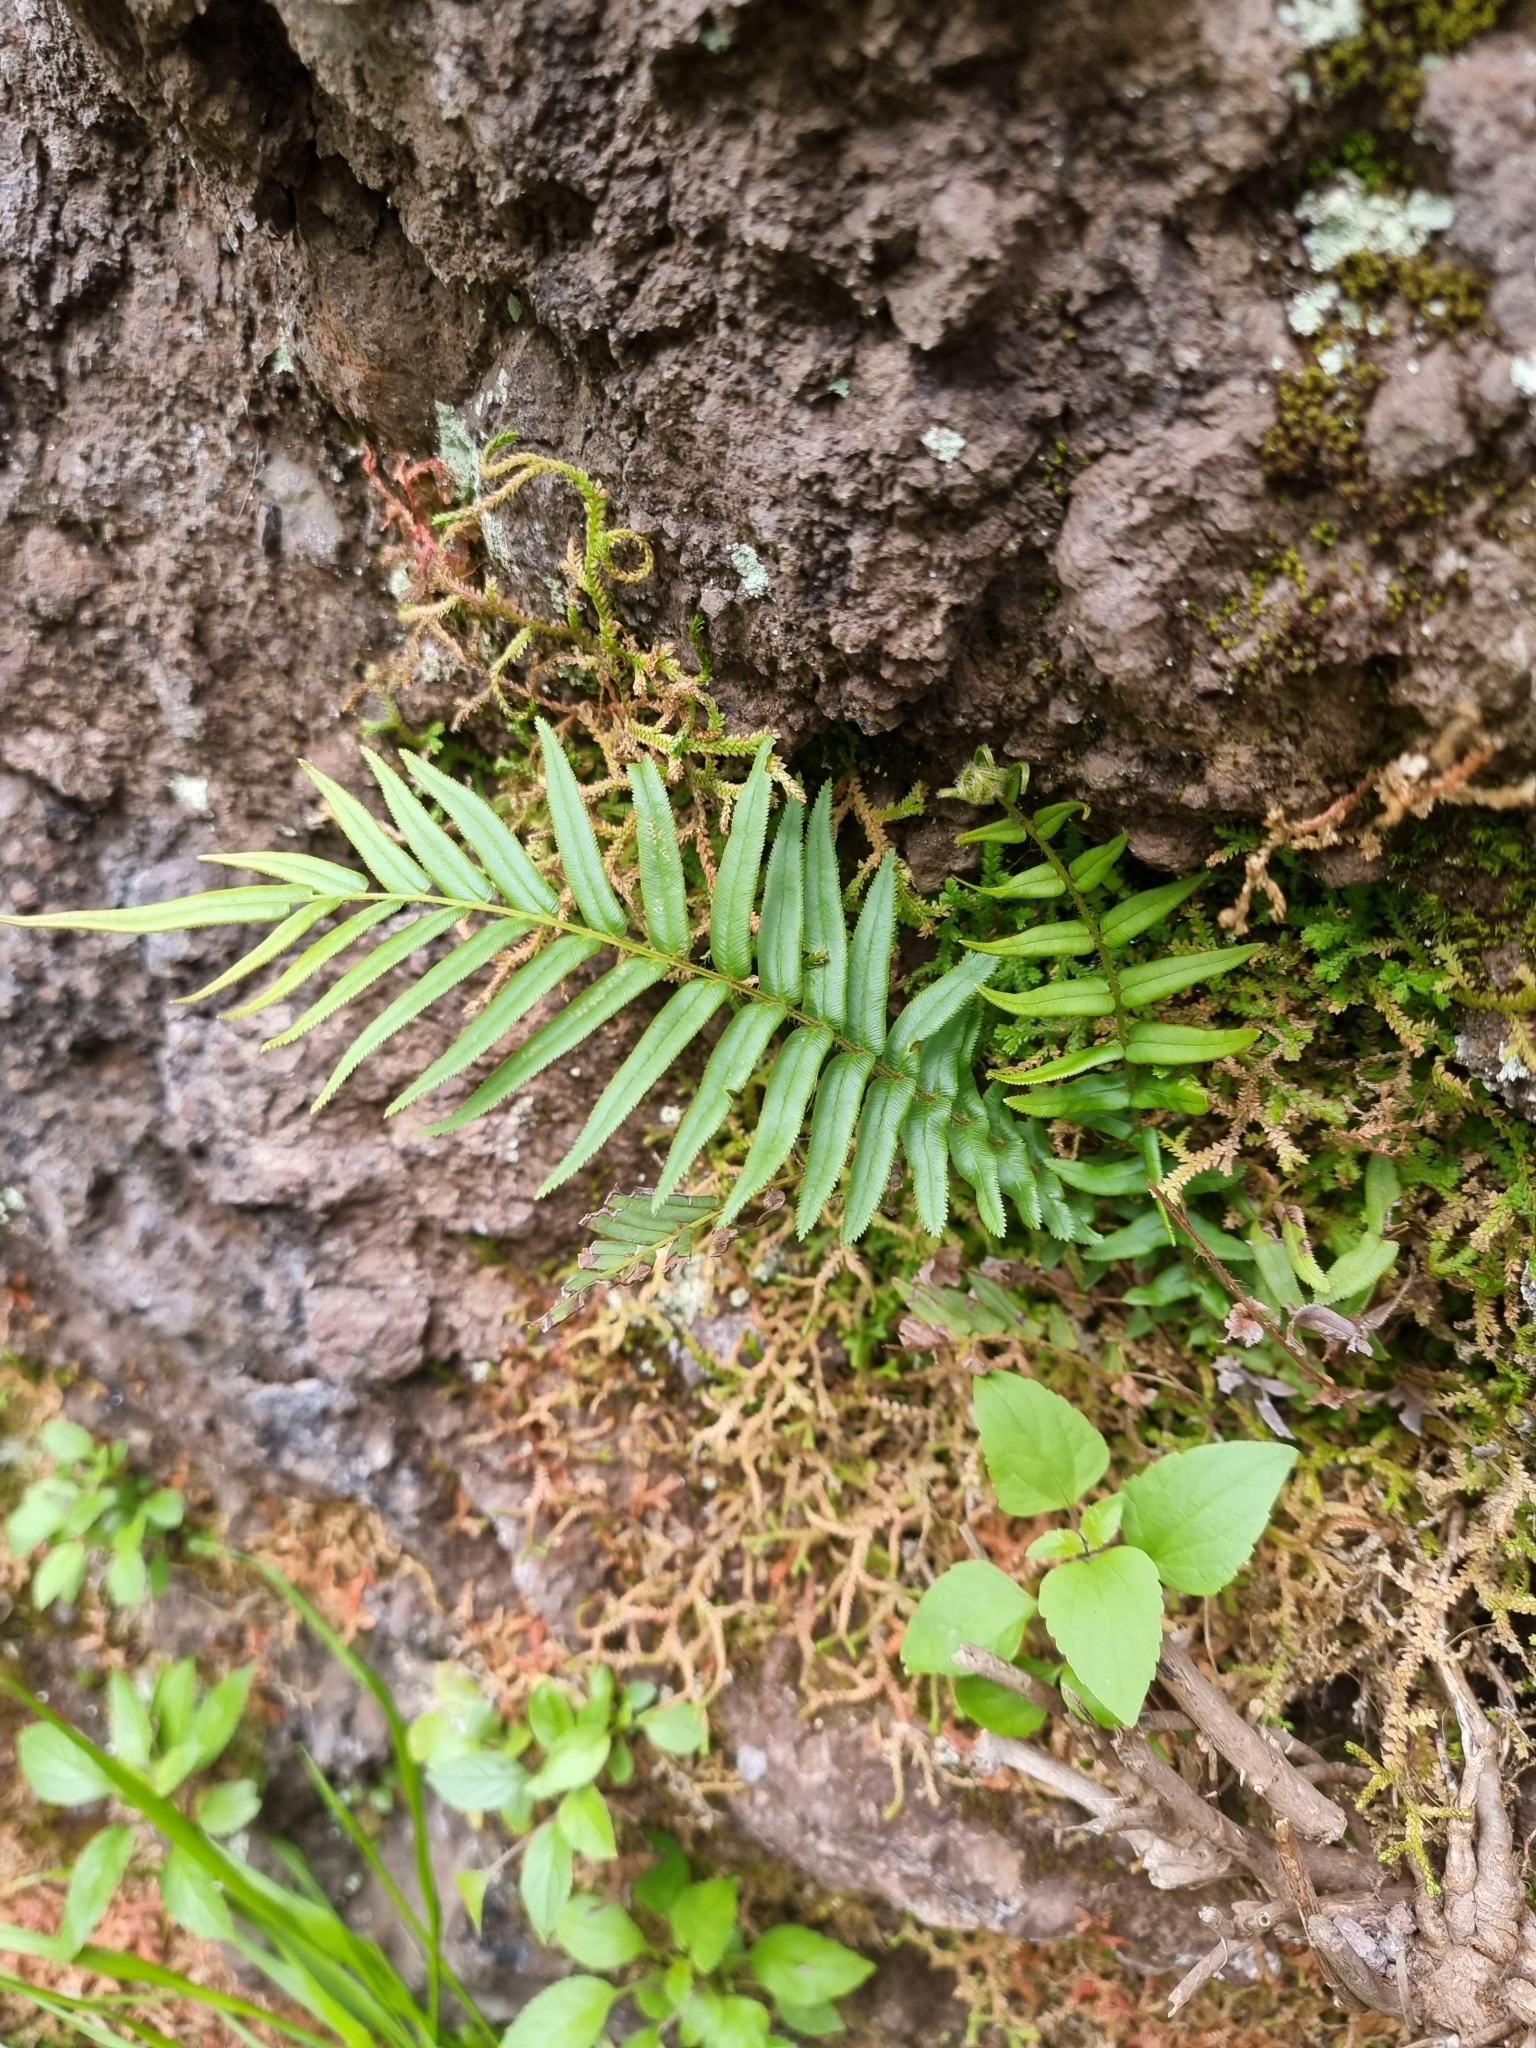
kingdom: Plantae
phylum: Tracheophyta
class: Polypodiopsida
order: Polypodiales
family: Pteridaceae
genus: Pteris
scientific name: Pteris vittata
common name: Ladder brake
